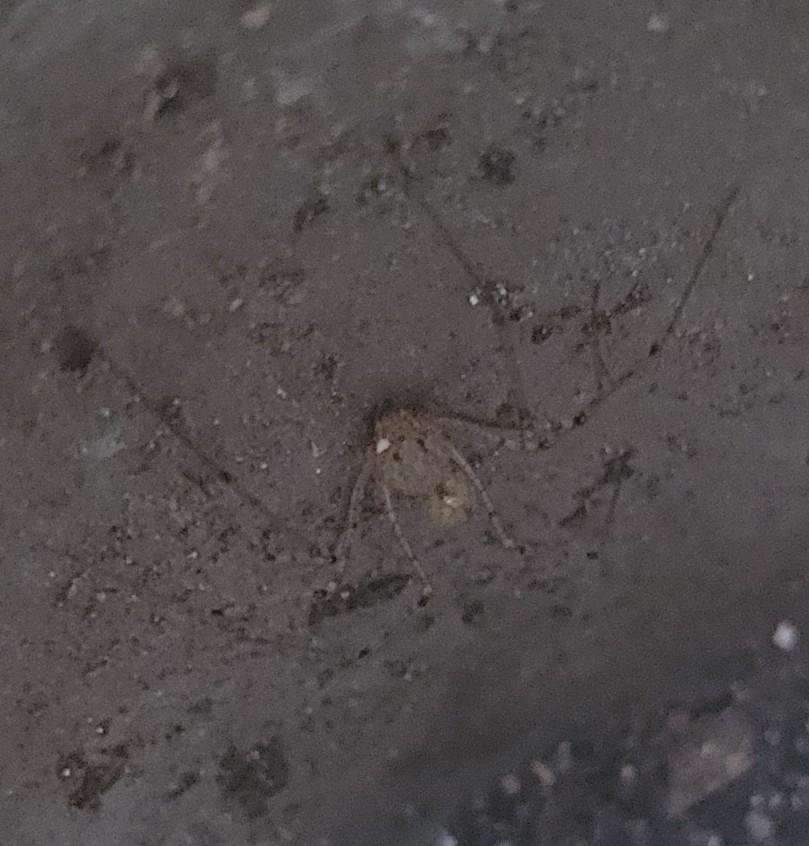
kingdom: Animalia
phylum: Arthropoda
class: Arachnida
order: Araneae
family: Scytodidae
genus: Scytodes
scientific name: Scytodes atlacoya
